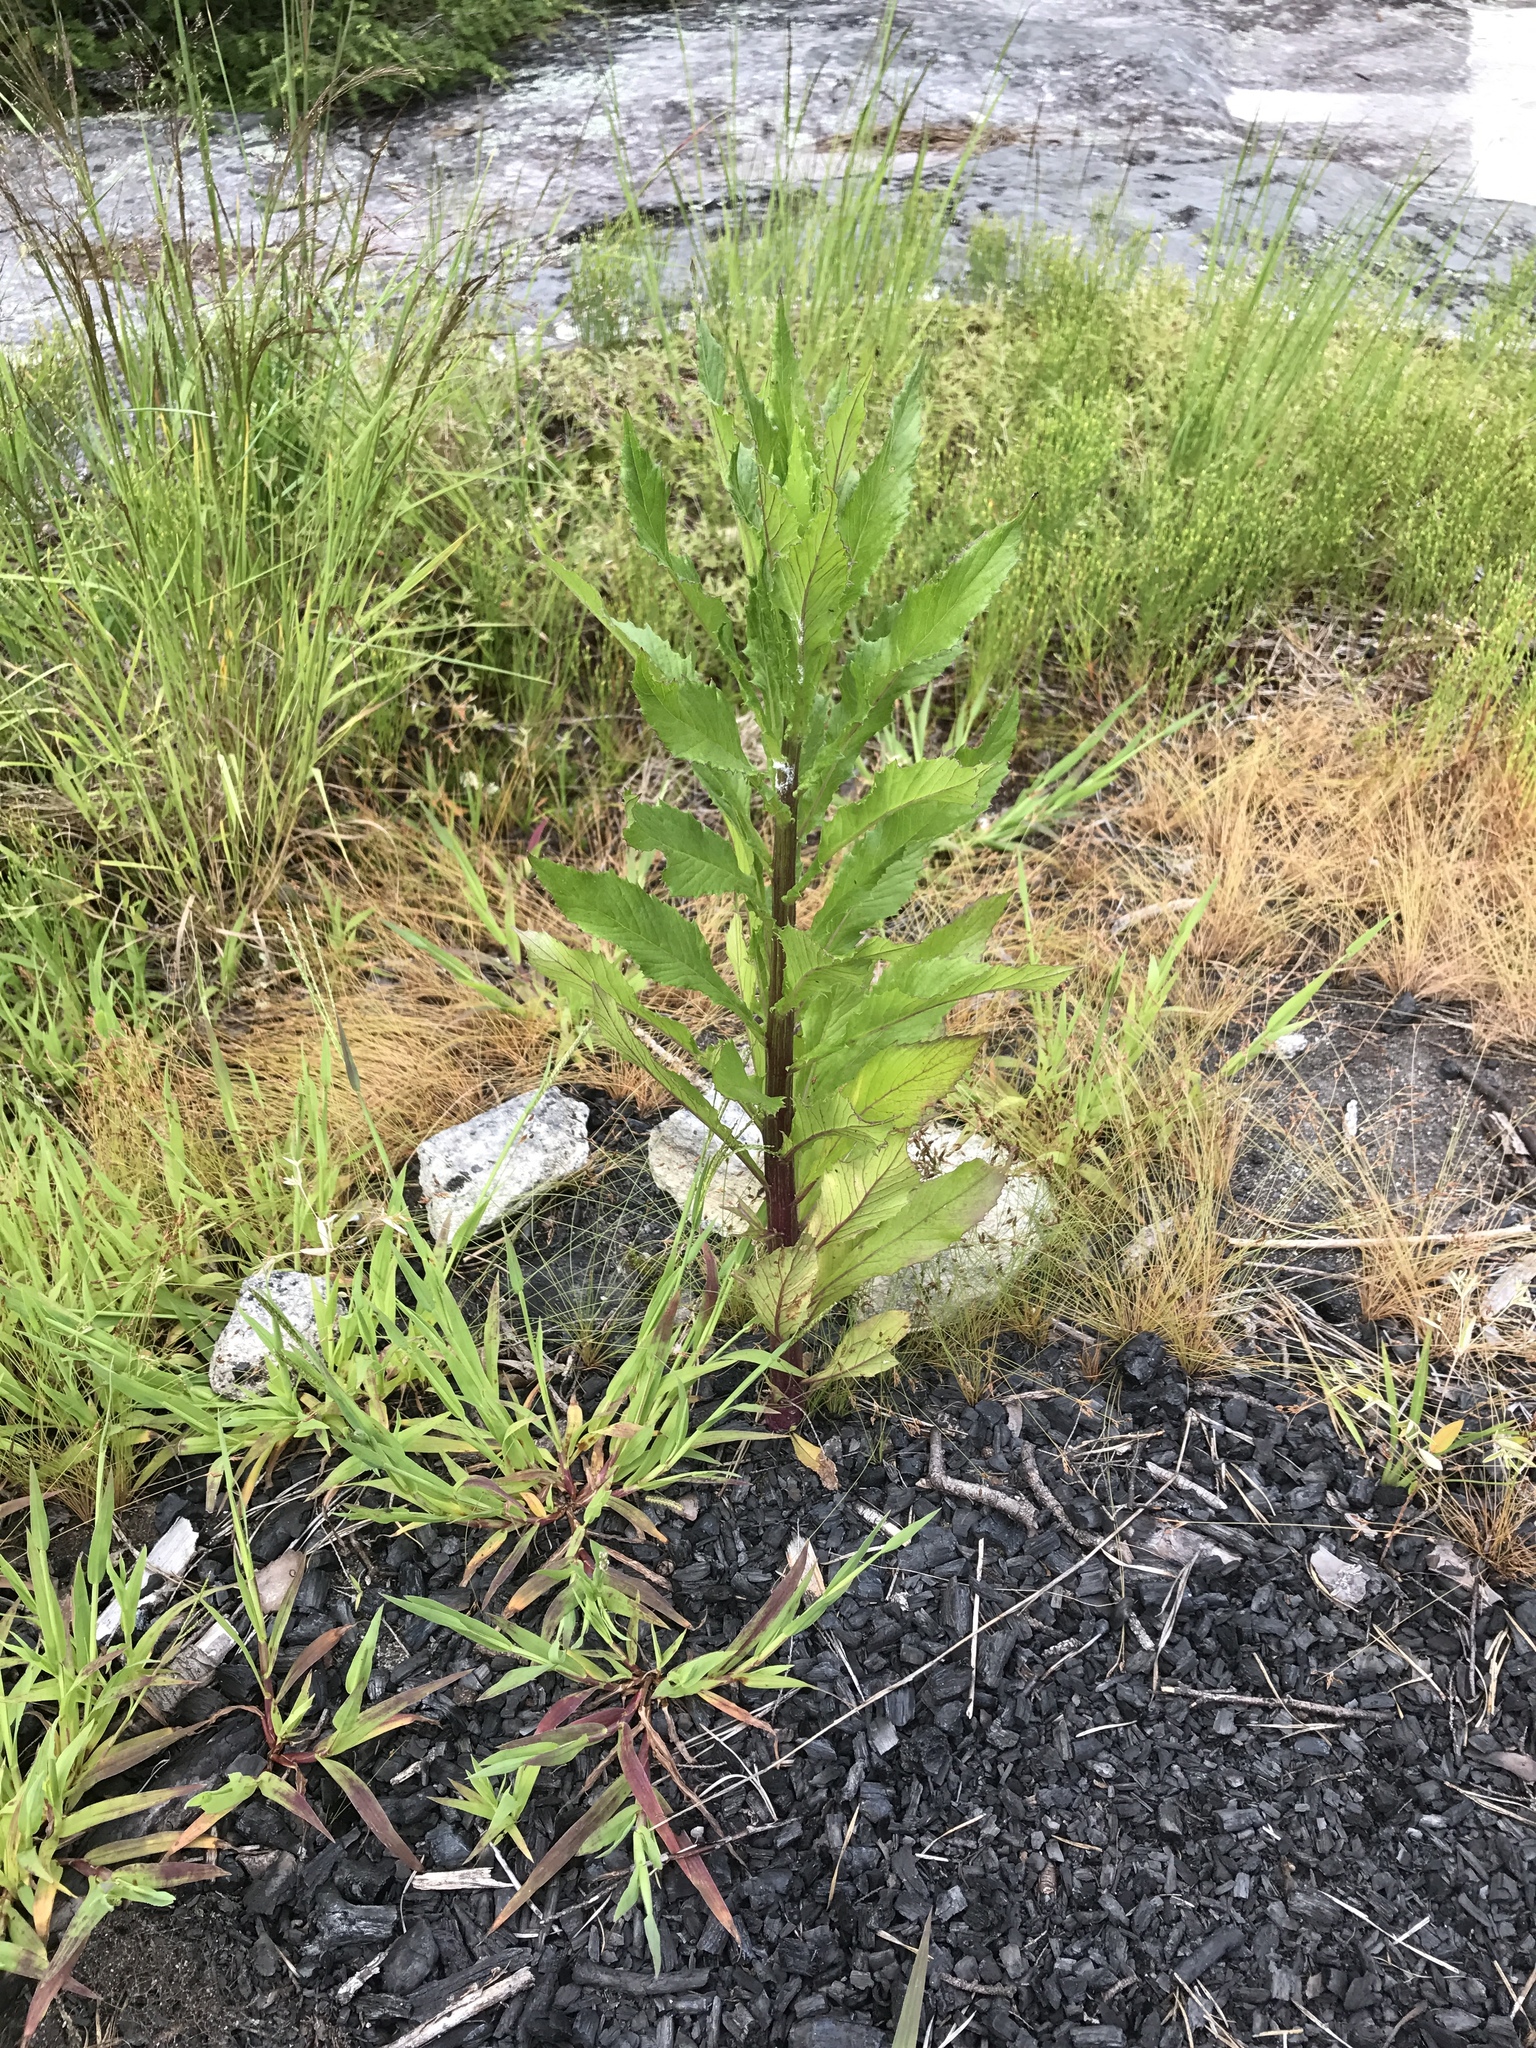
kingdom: Plantae
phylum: Tracheophyta
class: Magnoliopsida
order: Asterales
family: Asteraceae
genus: Erechtites
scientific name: Erechtites hieraciifolius
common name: American burnweed
